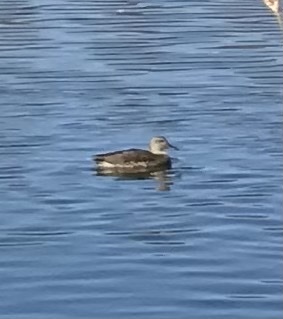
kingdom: Animalia
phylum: Chordata
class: Aves
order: Anseriformes
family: Anatidae
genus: Mareca
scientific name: Mareca strepera
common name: Gadwall
